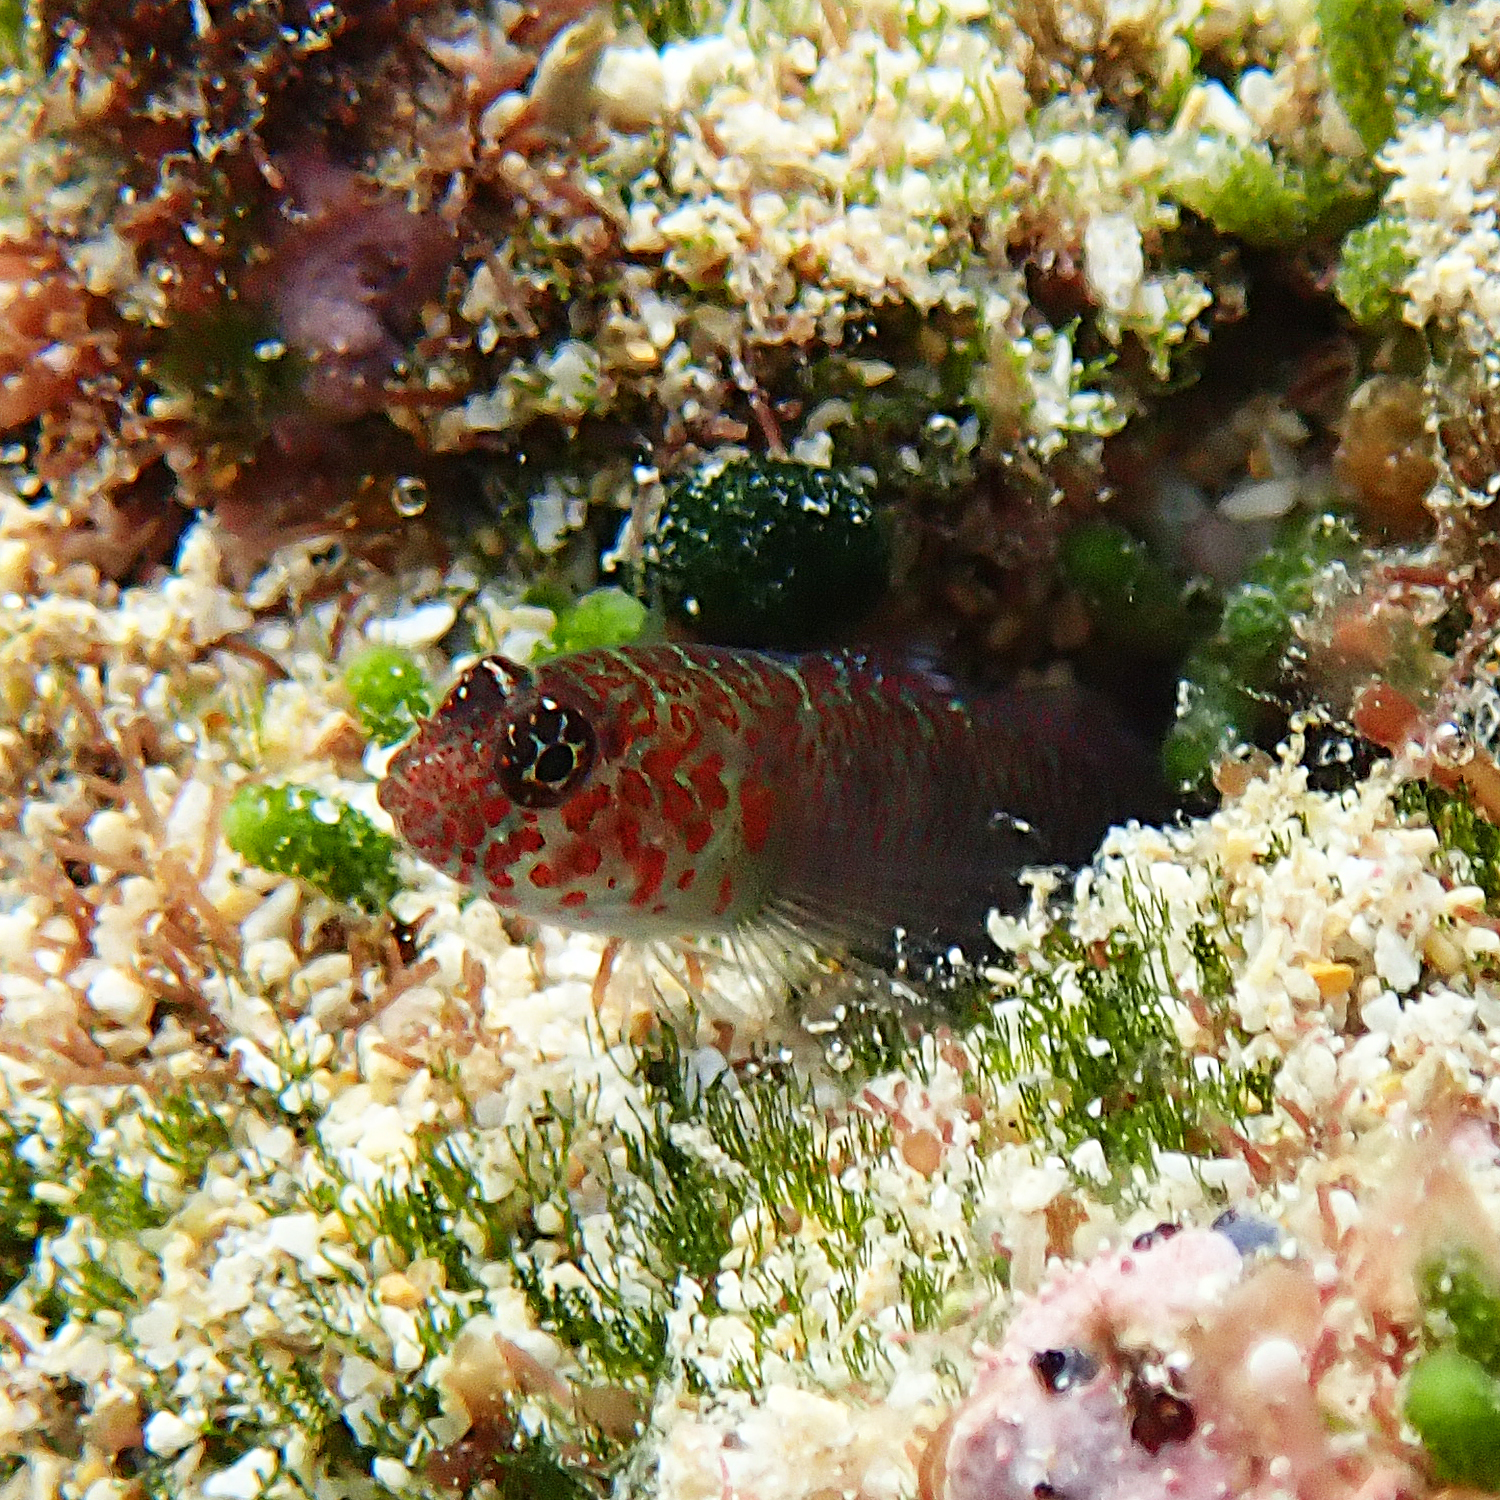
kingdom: Animalia
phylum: Chordata
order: Perciformes
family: Gobiidae
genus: Eviota
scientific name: Eviota hoesei
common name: Doug's eviota
